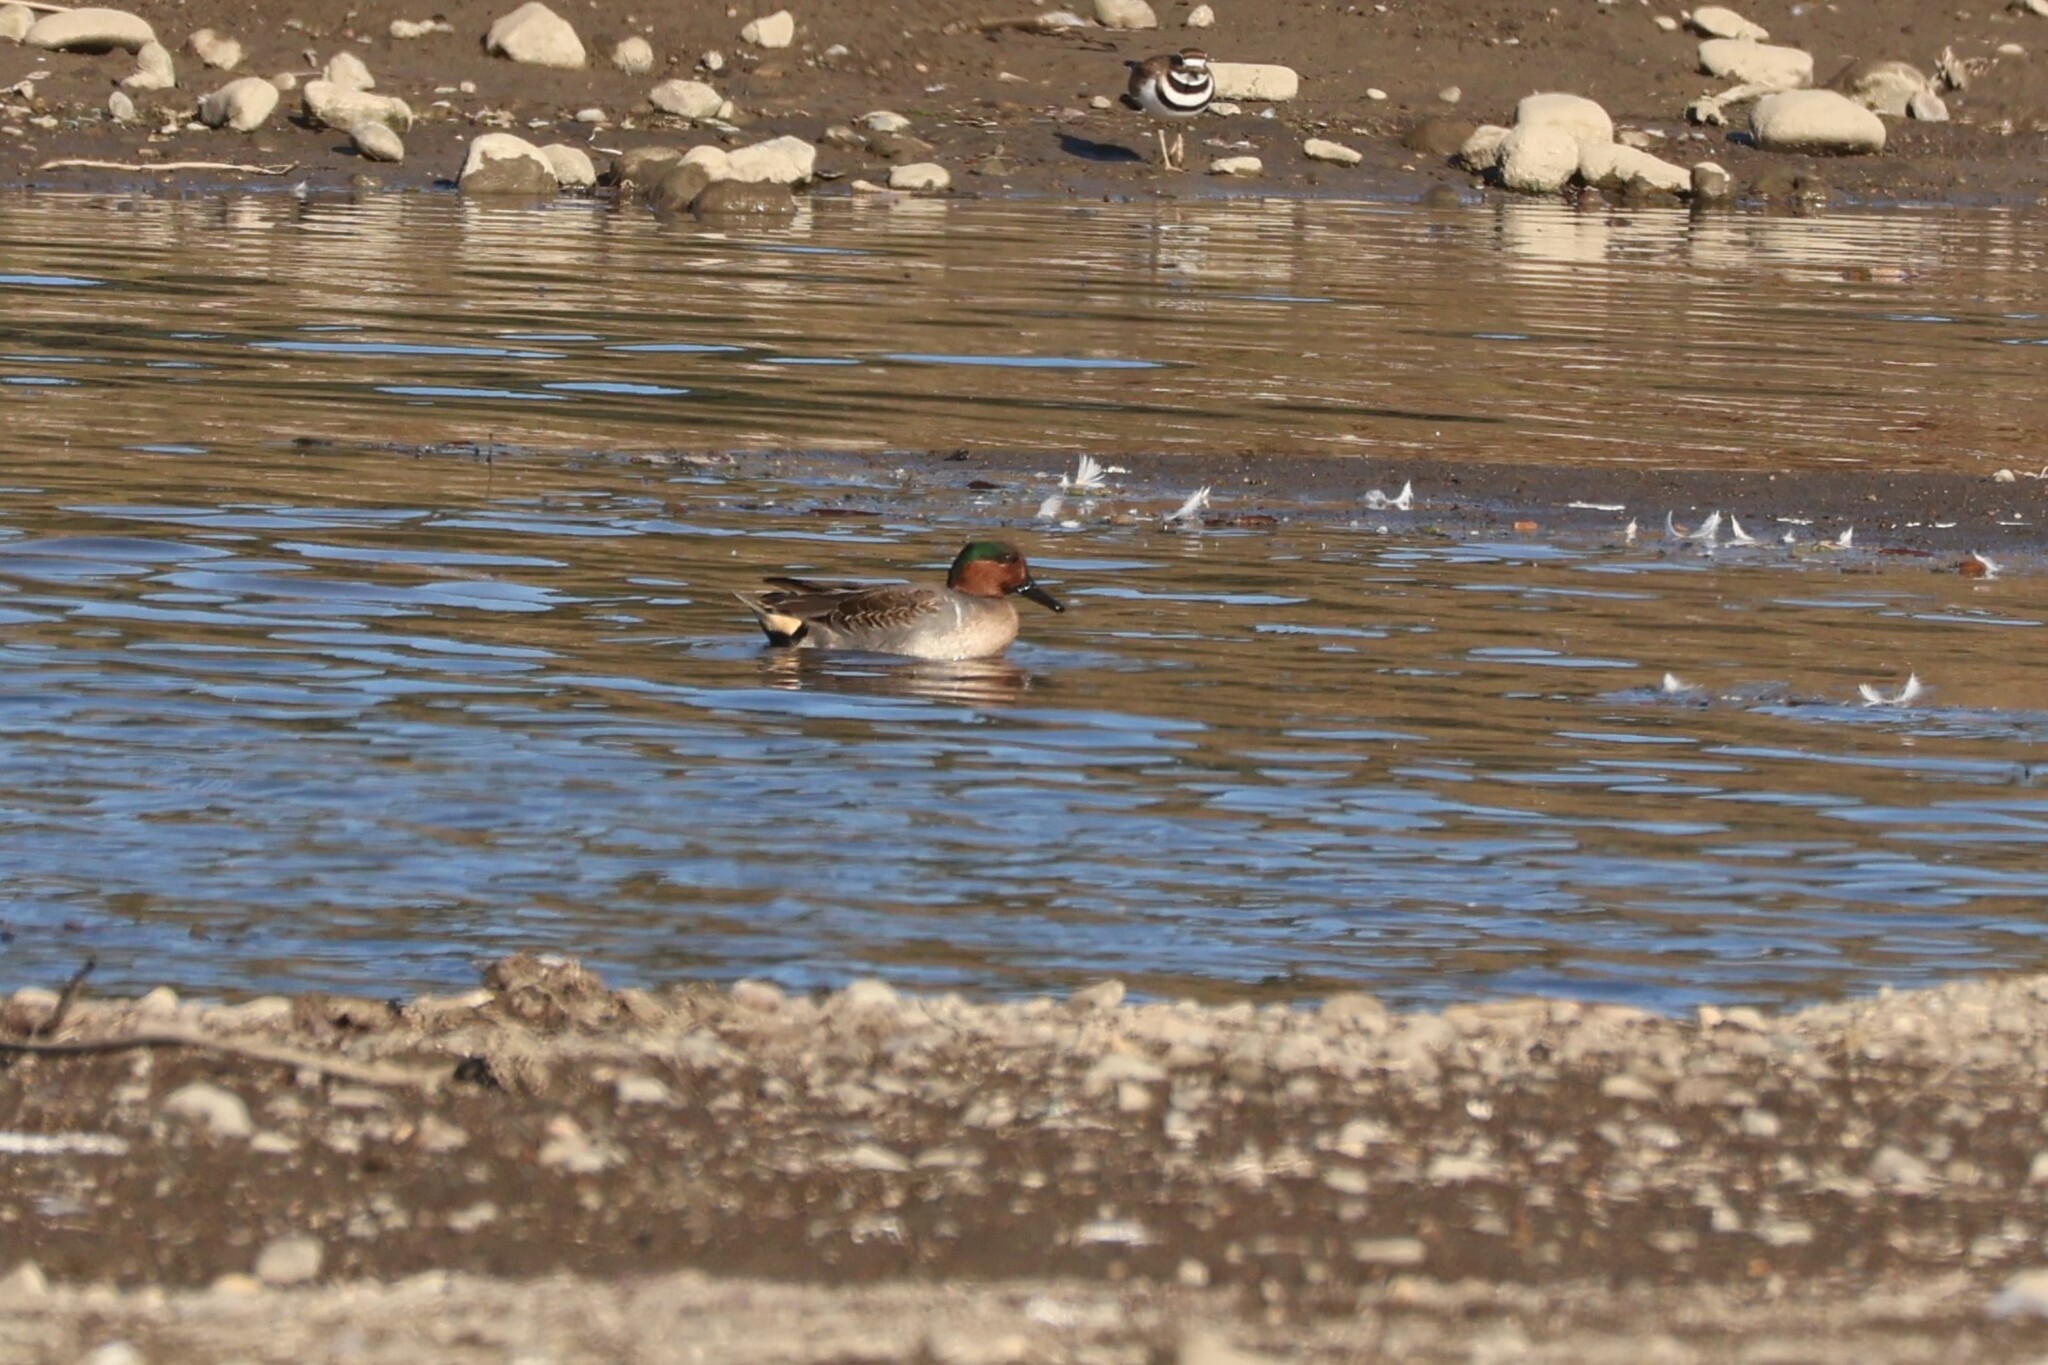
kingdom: Animalia
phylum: Chordata
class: Aves
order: Anseriformes
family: Anatidae
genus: Anas
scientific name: Anas crecca
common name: Eurasian teal
